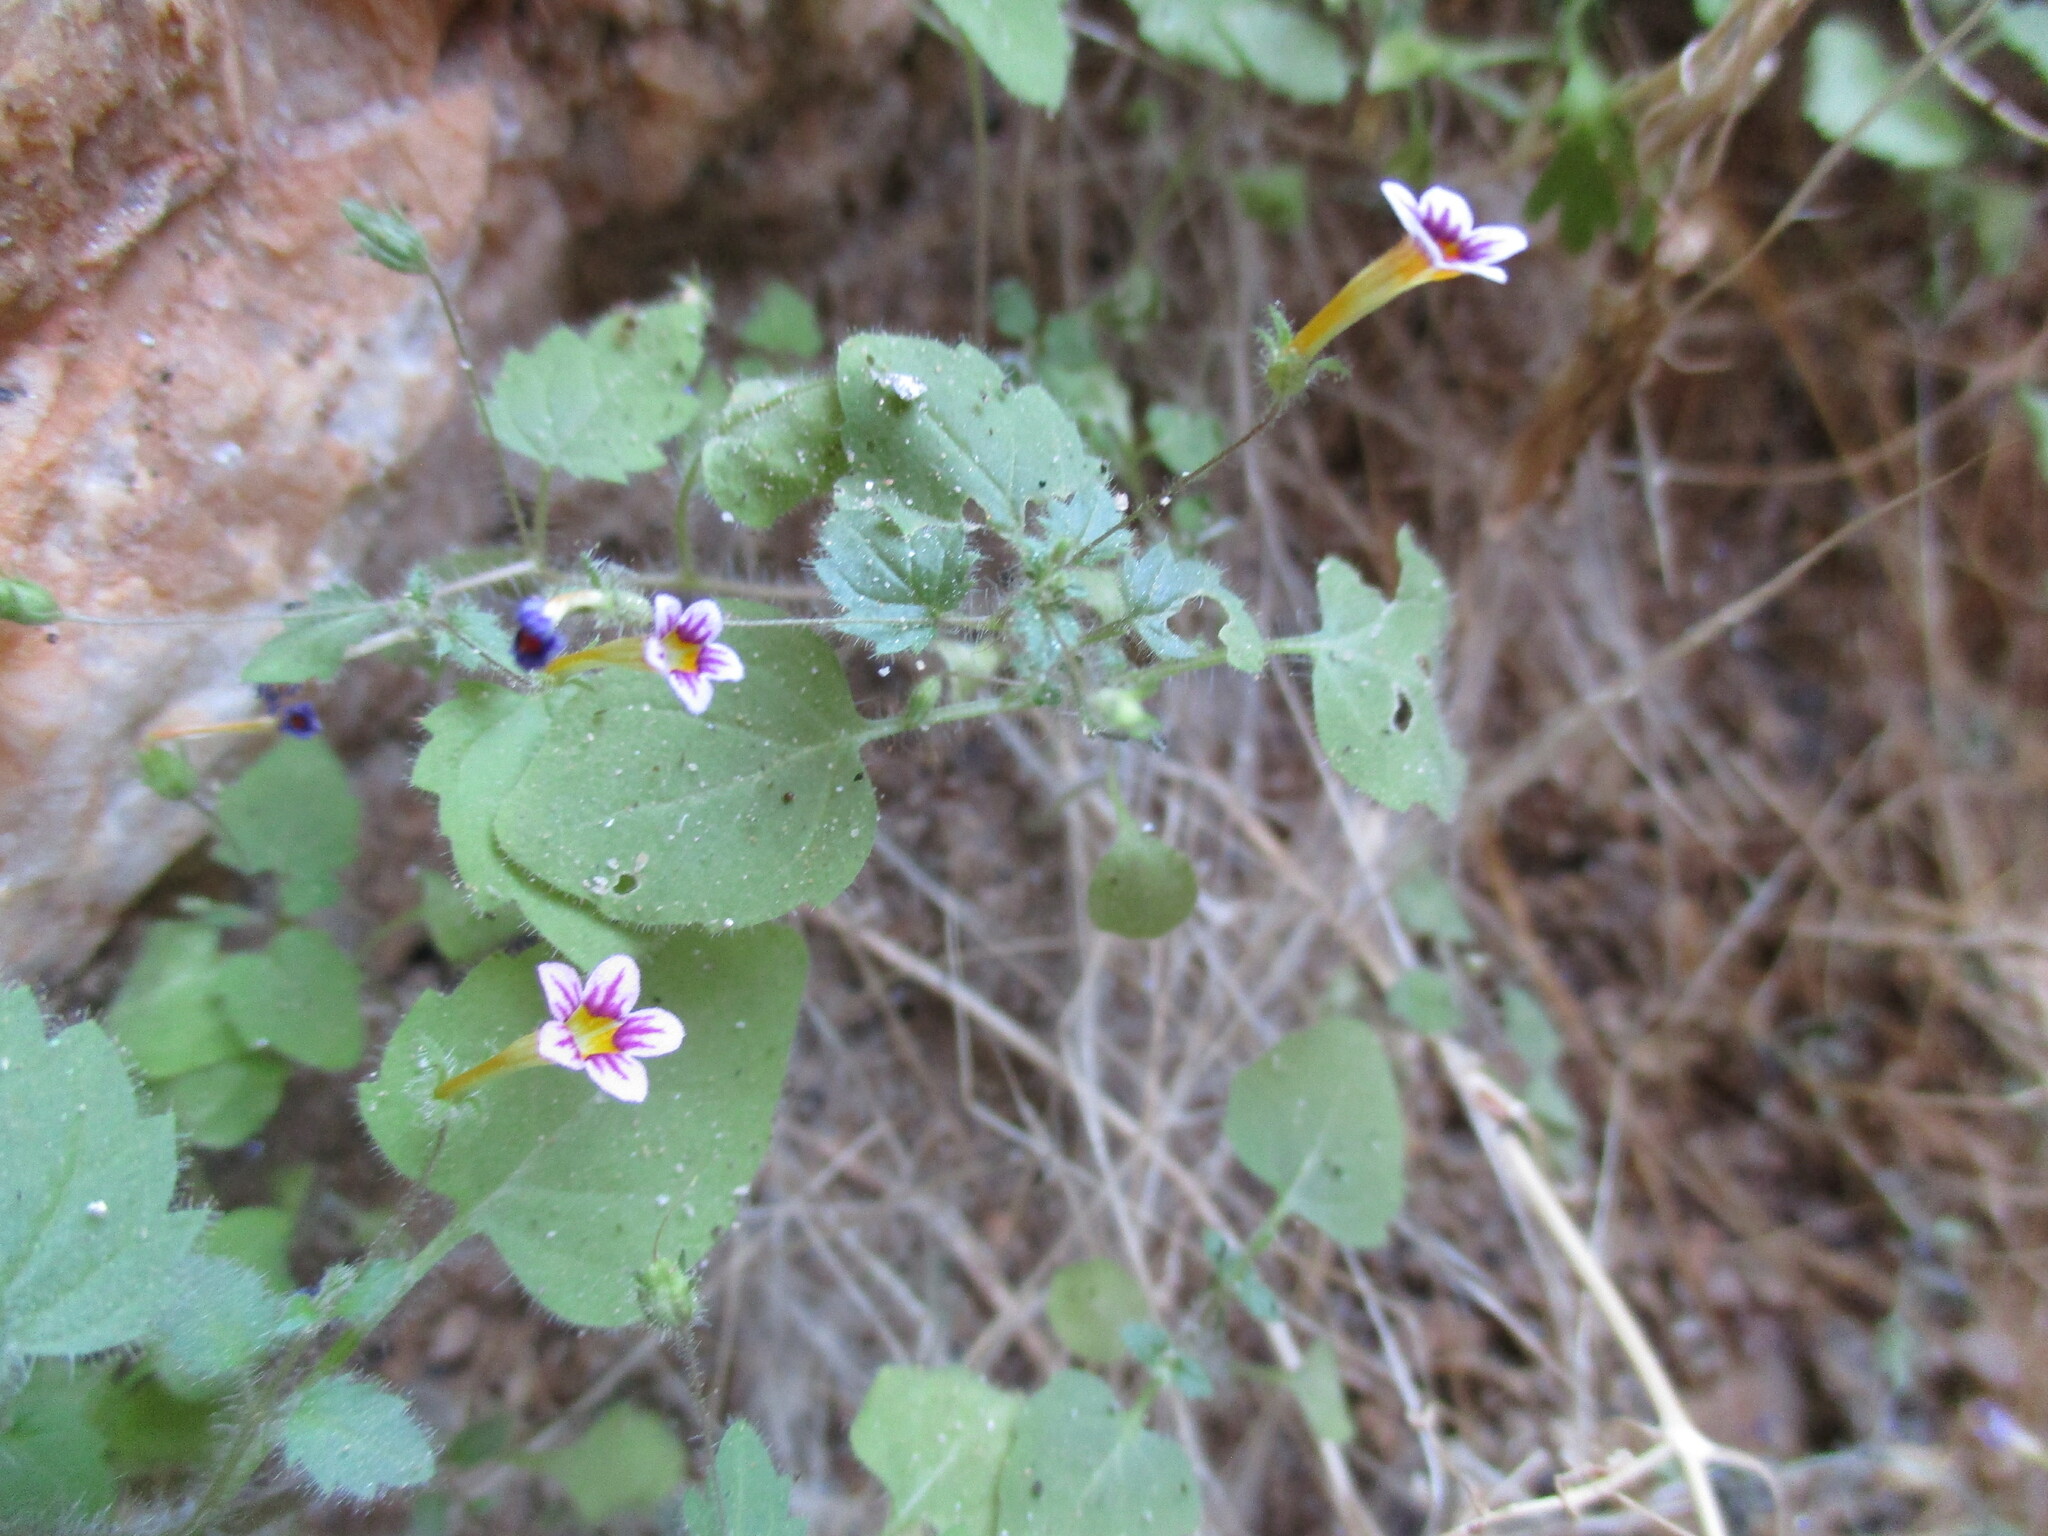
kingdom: Plantae
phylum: Tracheophyta
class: Magnoliopsida
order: Lamiales
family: Scrophulariaceae
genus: Jamesbrittenia
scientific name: Jamesbrittenia tenella
